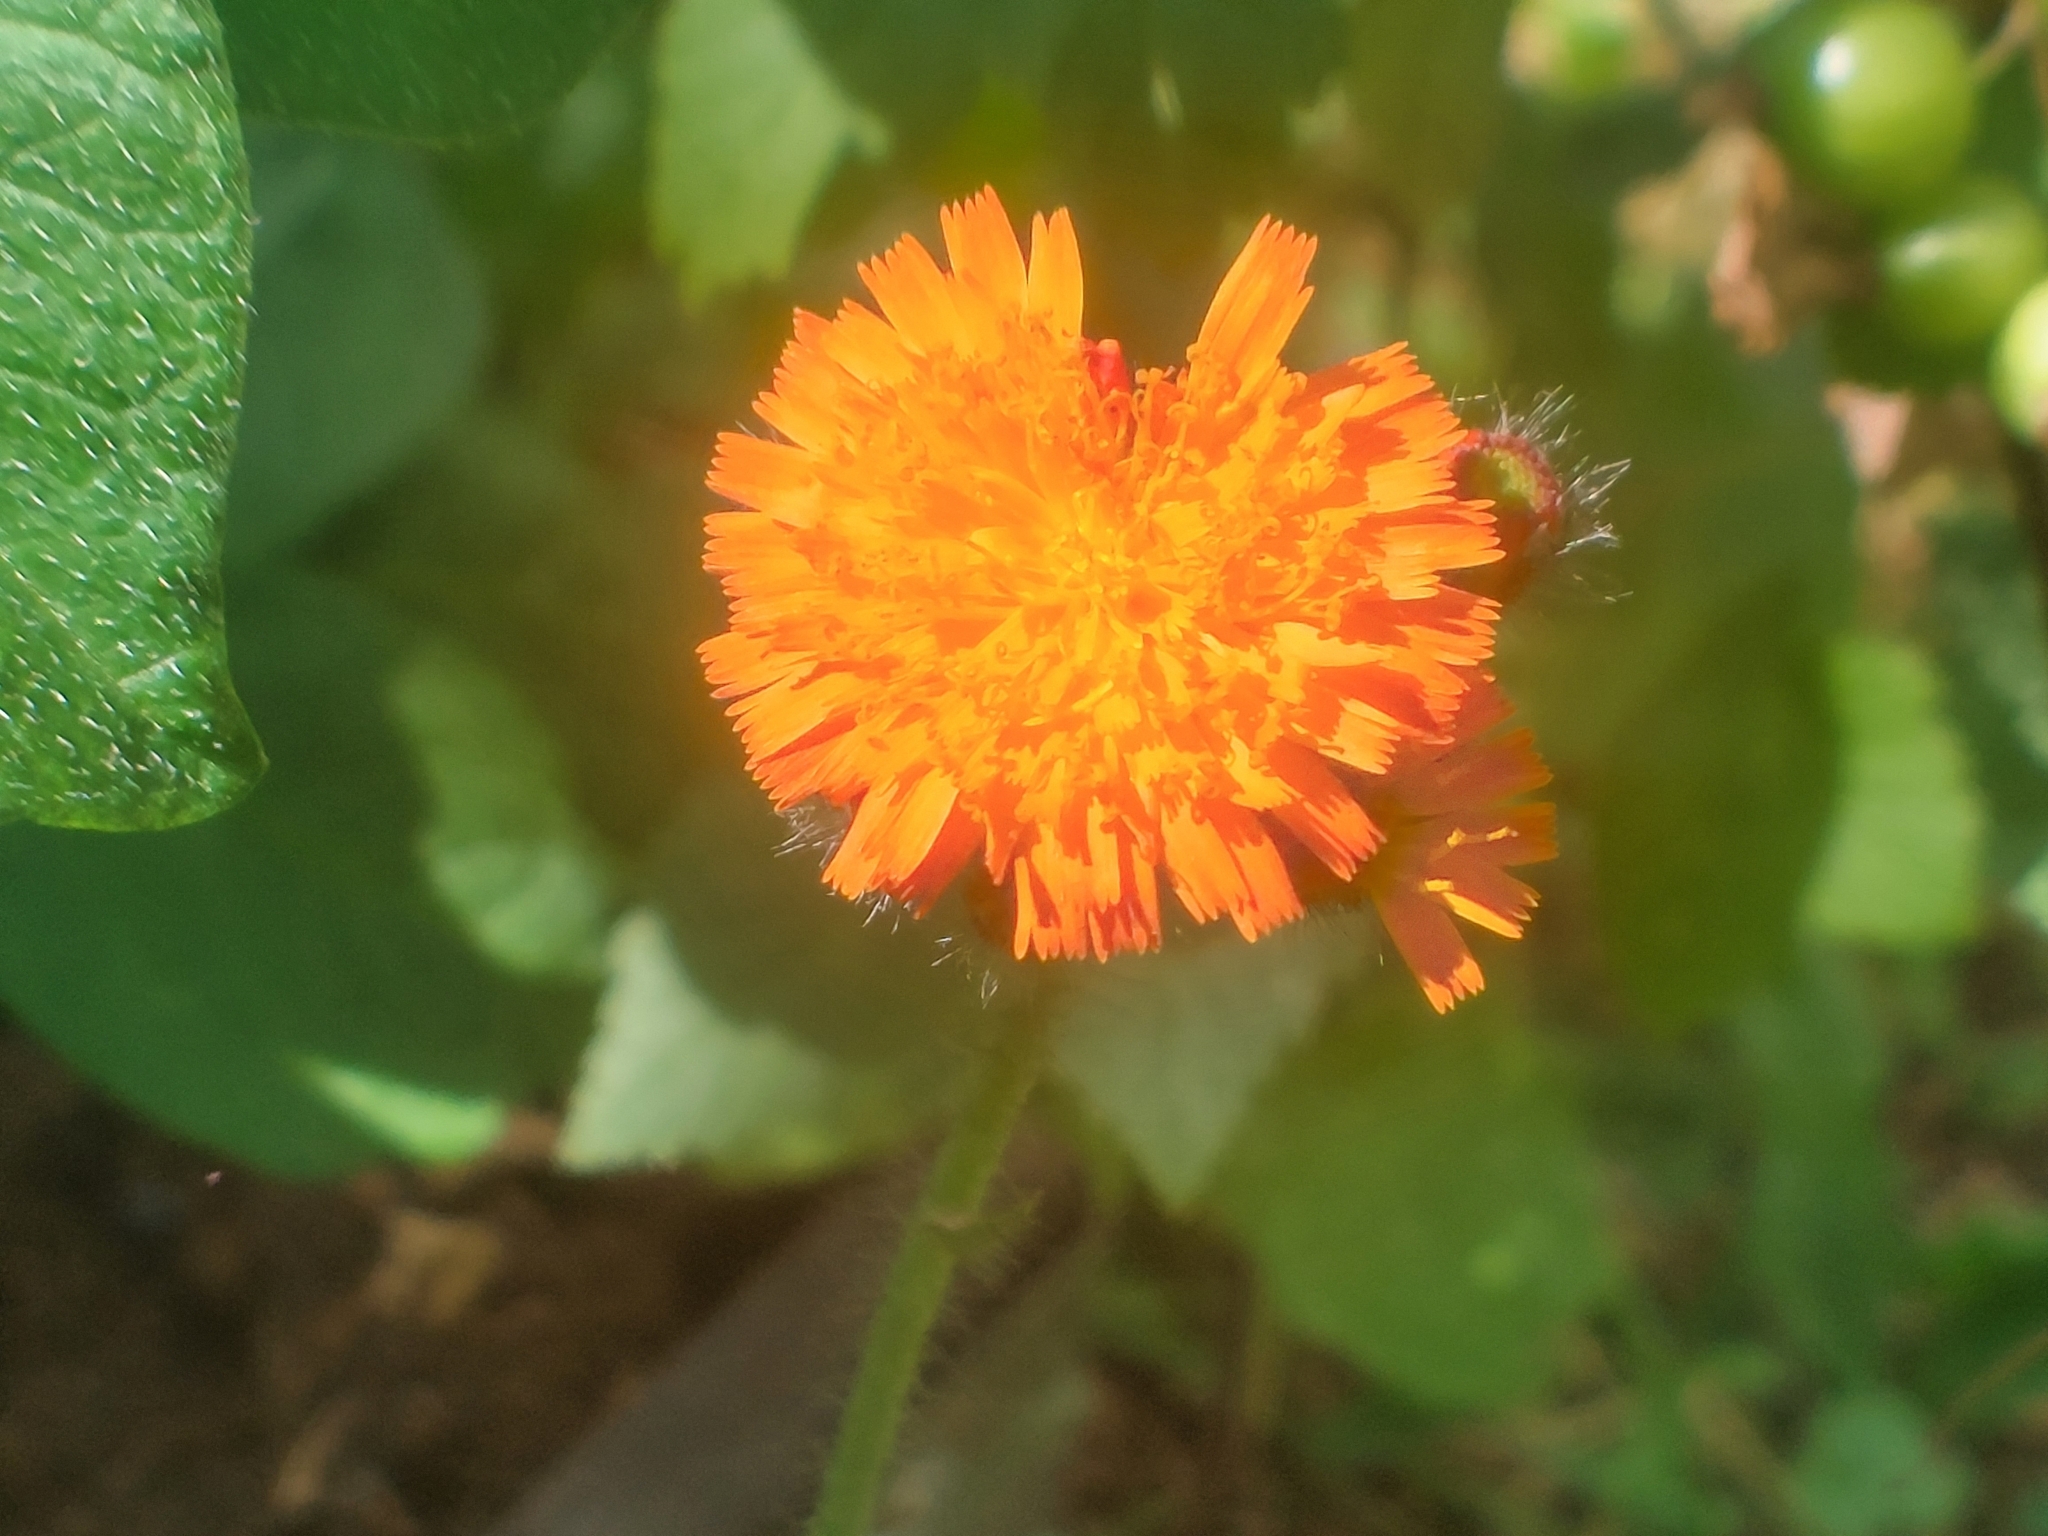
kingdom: Plantae
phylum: Tracheophyta
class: Magnoliopsida
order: Asterales
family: Asteraceae
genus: Pilosella
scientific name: Pilosella aurantiaca
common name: Fox-and-cubs
